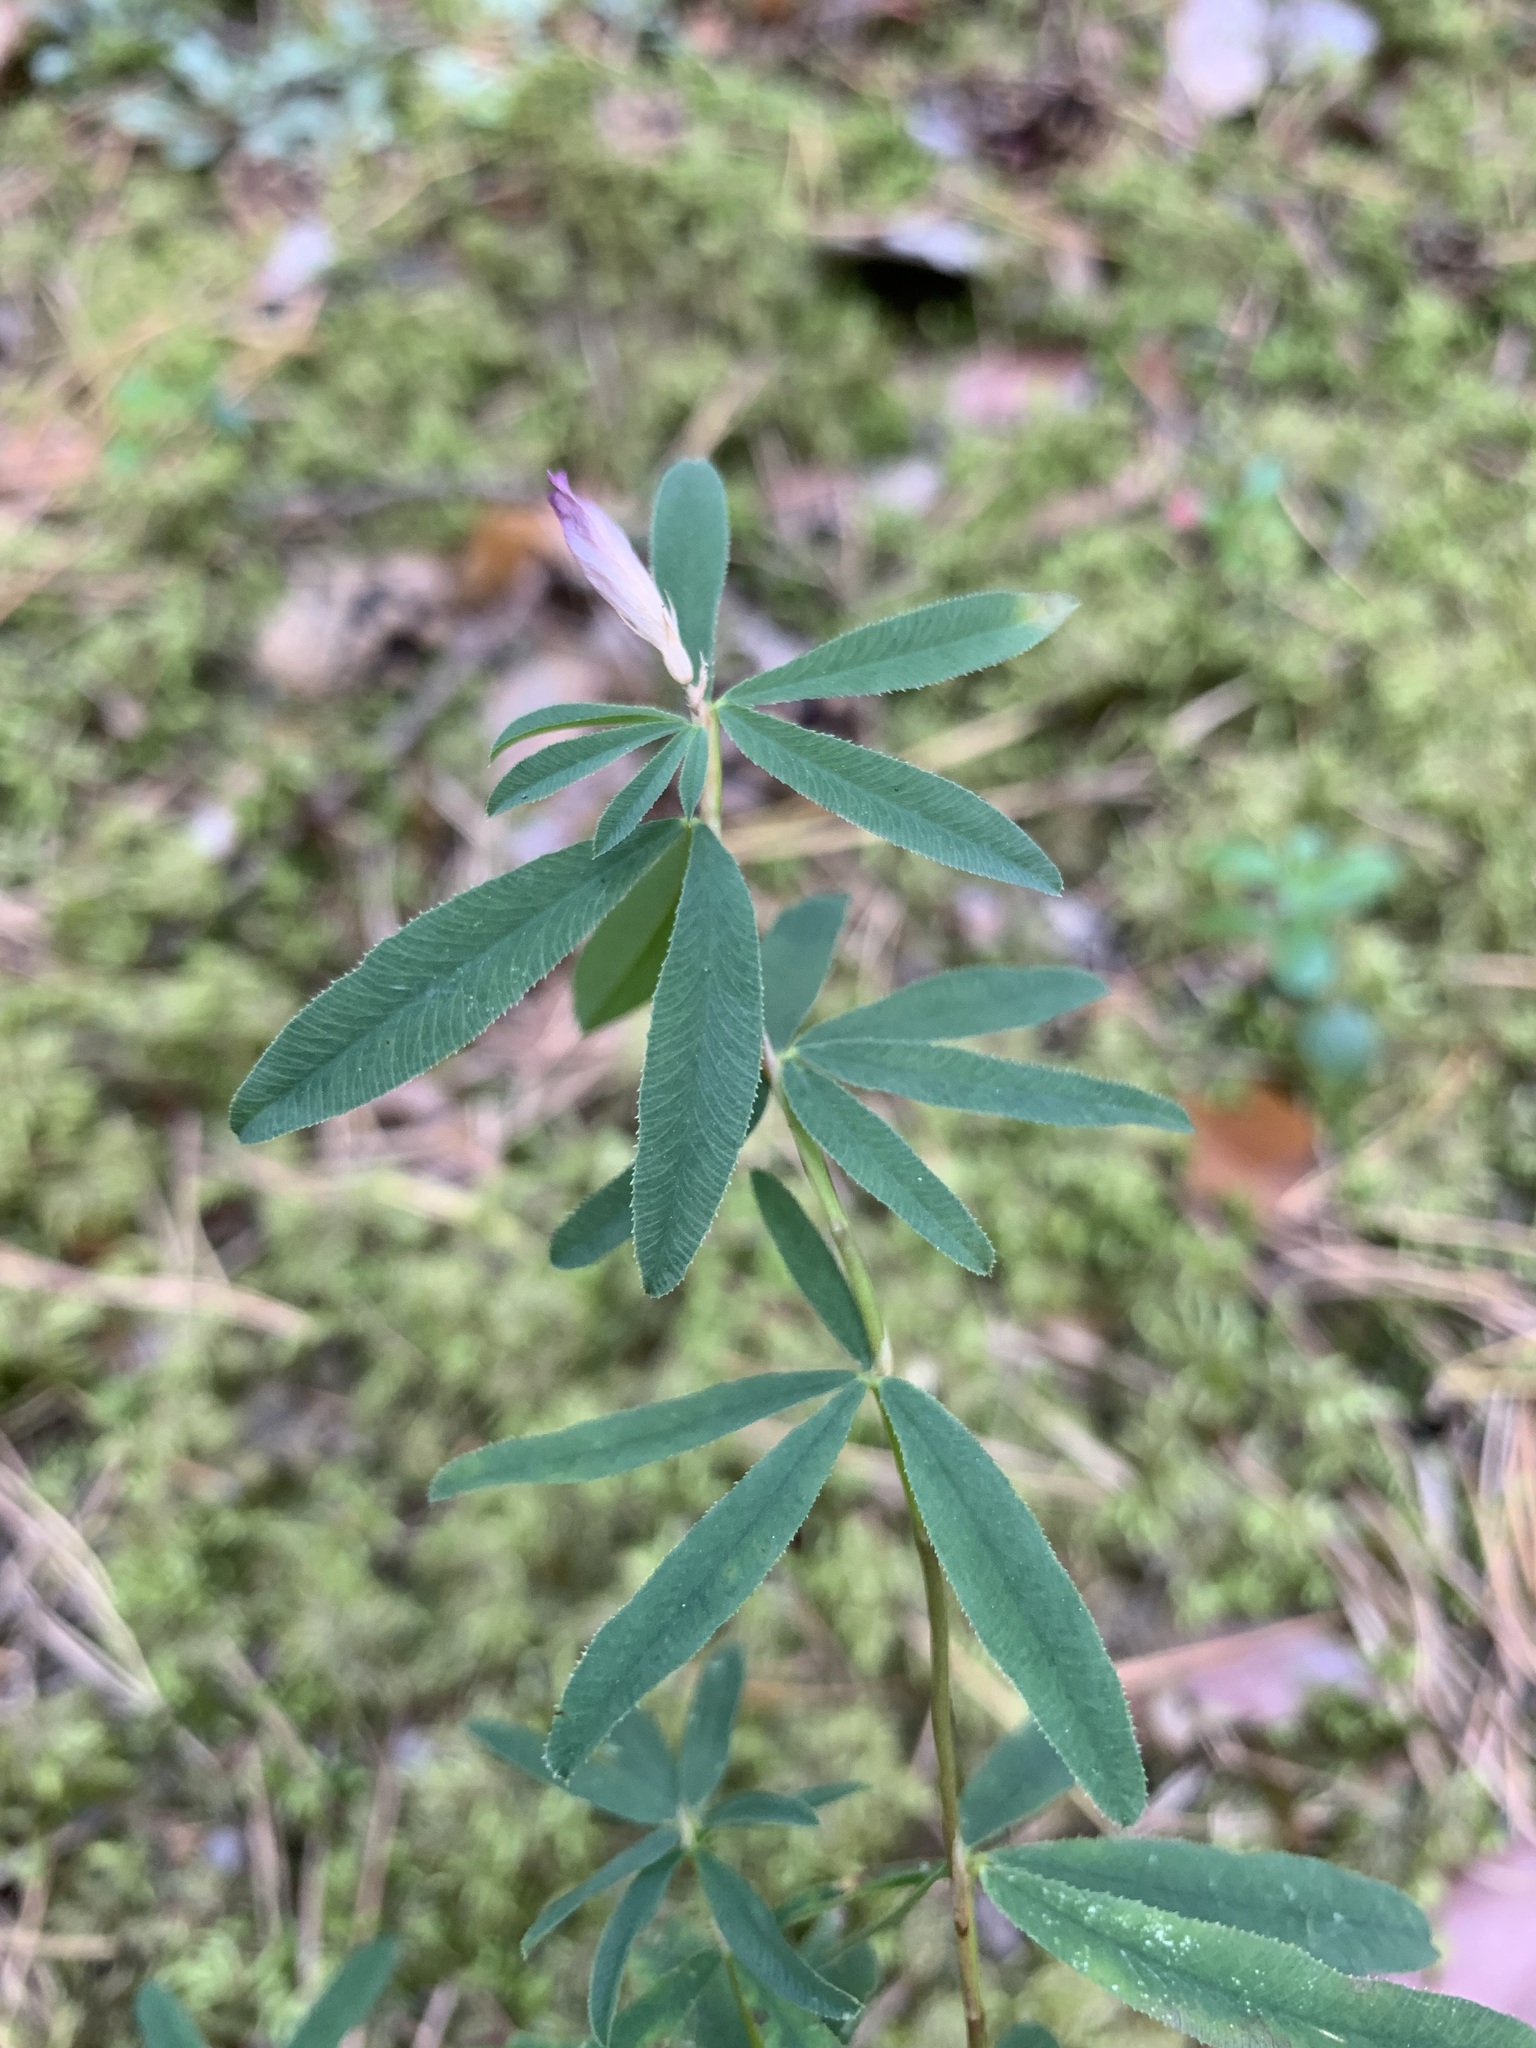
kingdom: Plantae
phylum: Tracheophyta
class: Magnoliopsida
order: Fabales
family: Fabaceae
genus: Trifolium
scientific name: Trifolium lupinaster
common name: Lupine clover
